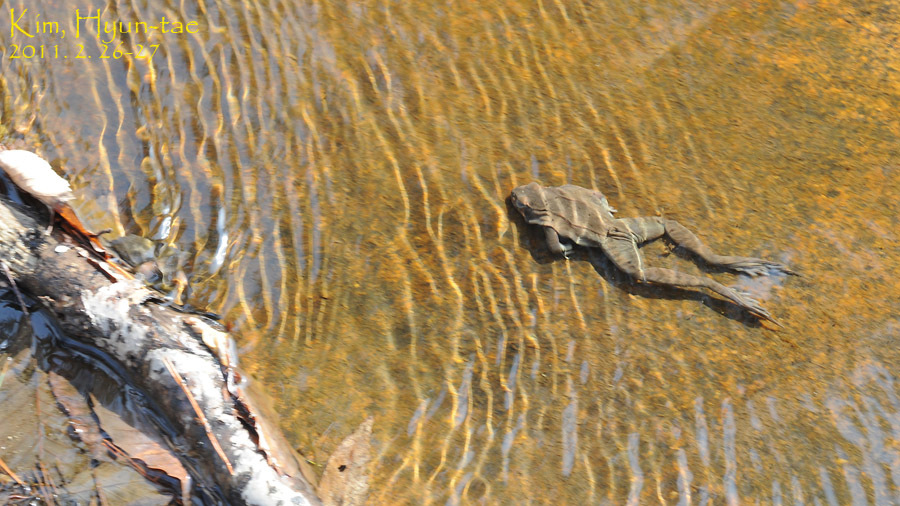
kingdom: Animalia
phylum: Chordata
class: Amphibia
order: Anura
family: Ranidae
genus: Rana
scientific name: Rana uenoi
